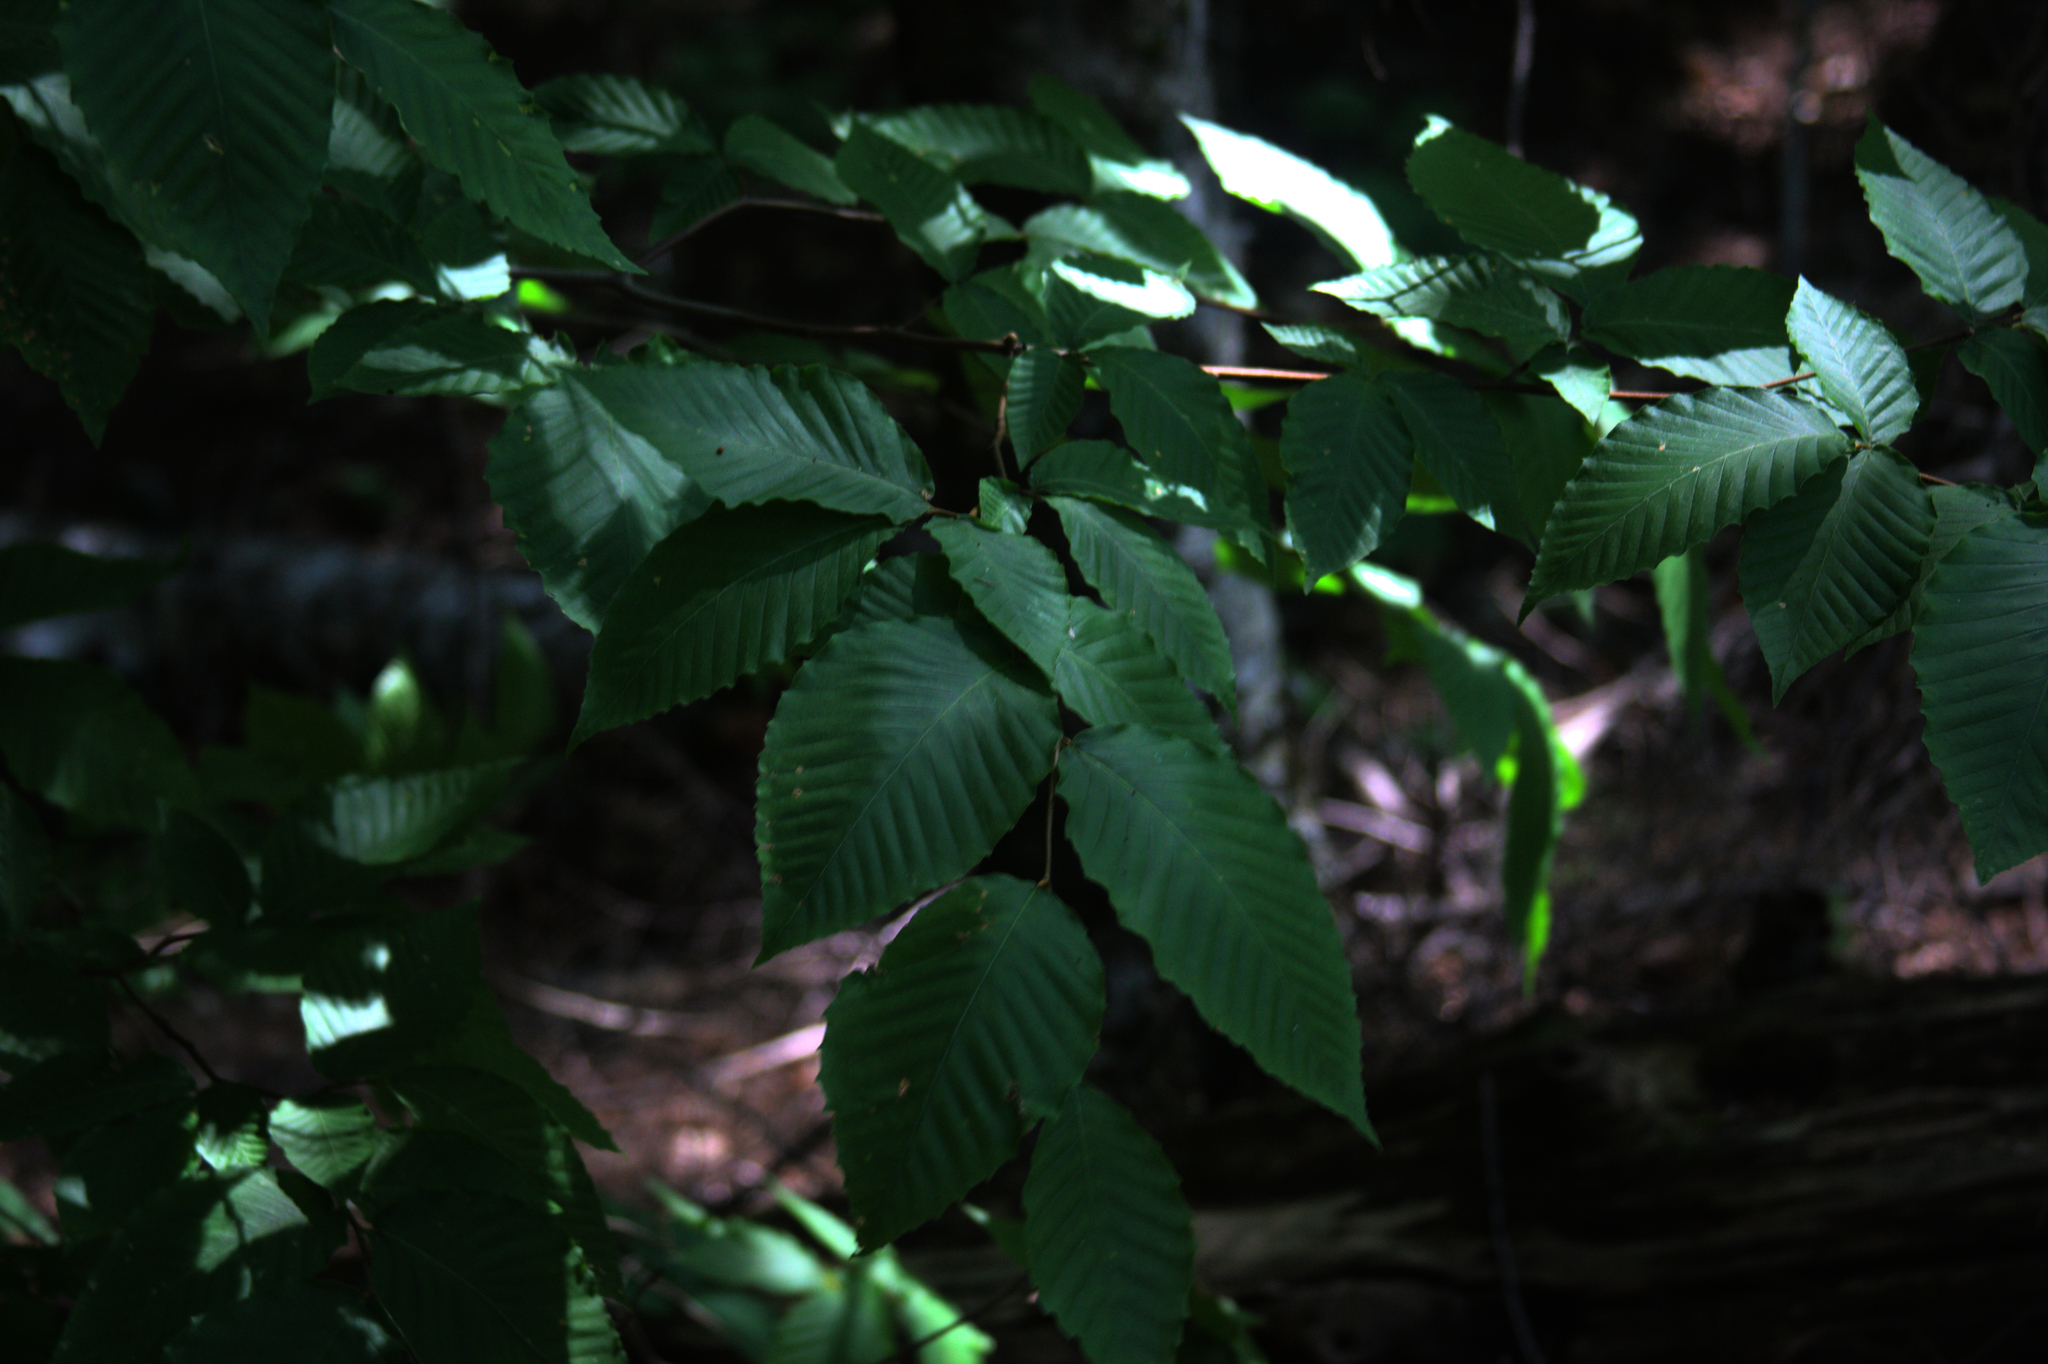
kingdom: Plantae
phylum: Tracheophyta
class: Magnoliopsida
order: Fagales
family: Fagaceae
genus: Fagus
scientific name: Fagus grandifolia
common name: American beech
